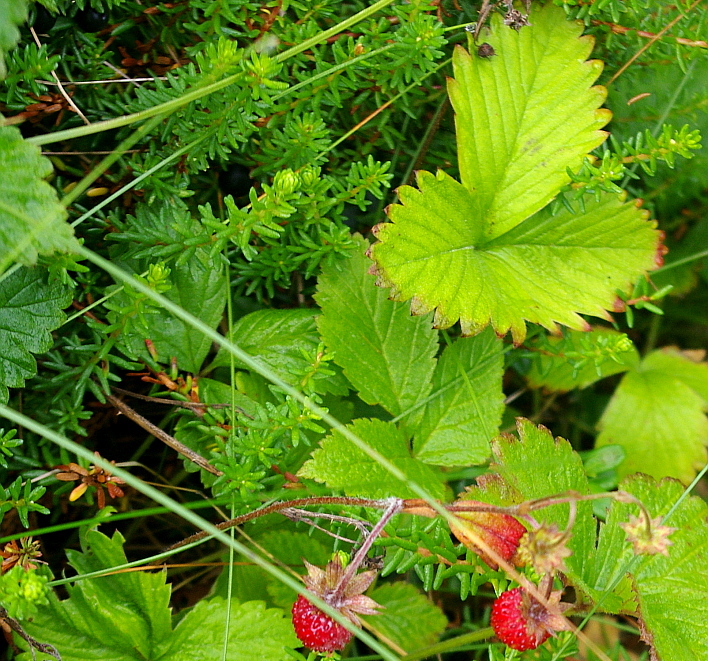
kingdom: Plantae
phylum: Tracheophyta
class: Magnoliopsida
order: Rosales
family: Rosaceae
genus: Fragaria
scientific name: Fragaria vesca
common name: Wild strawberry
